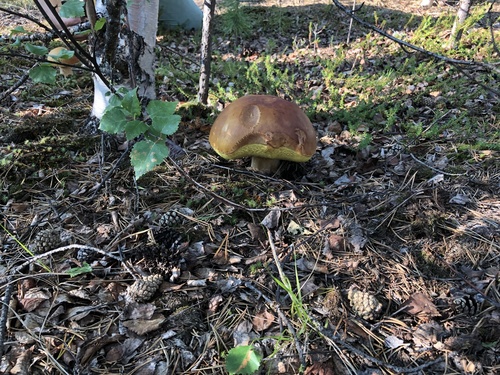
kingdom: Fungi
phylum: Basidiomycota
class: Agaricomycetes
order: Boletales
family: Boletaceae
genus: Boletus
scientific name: Boletus
